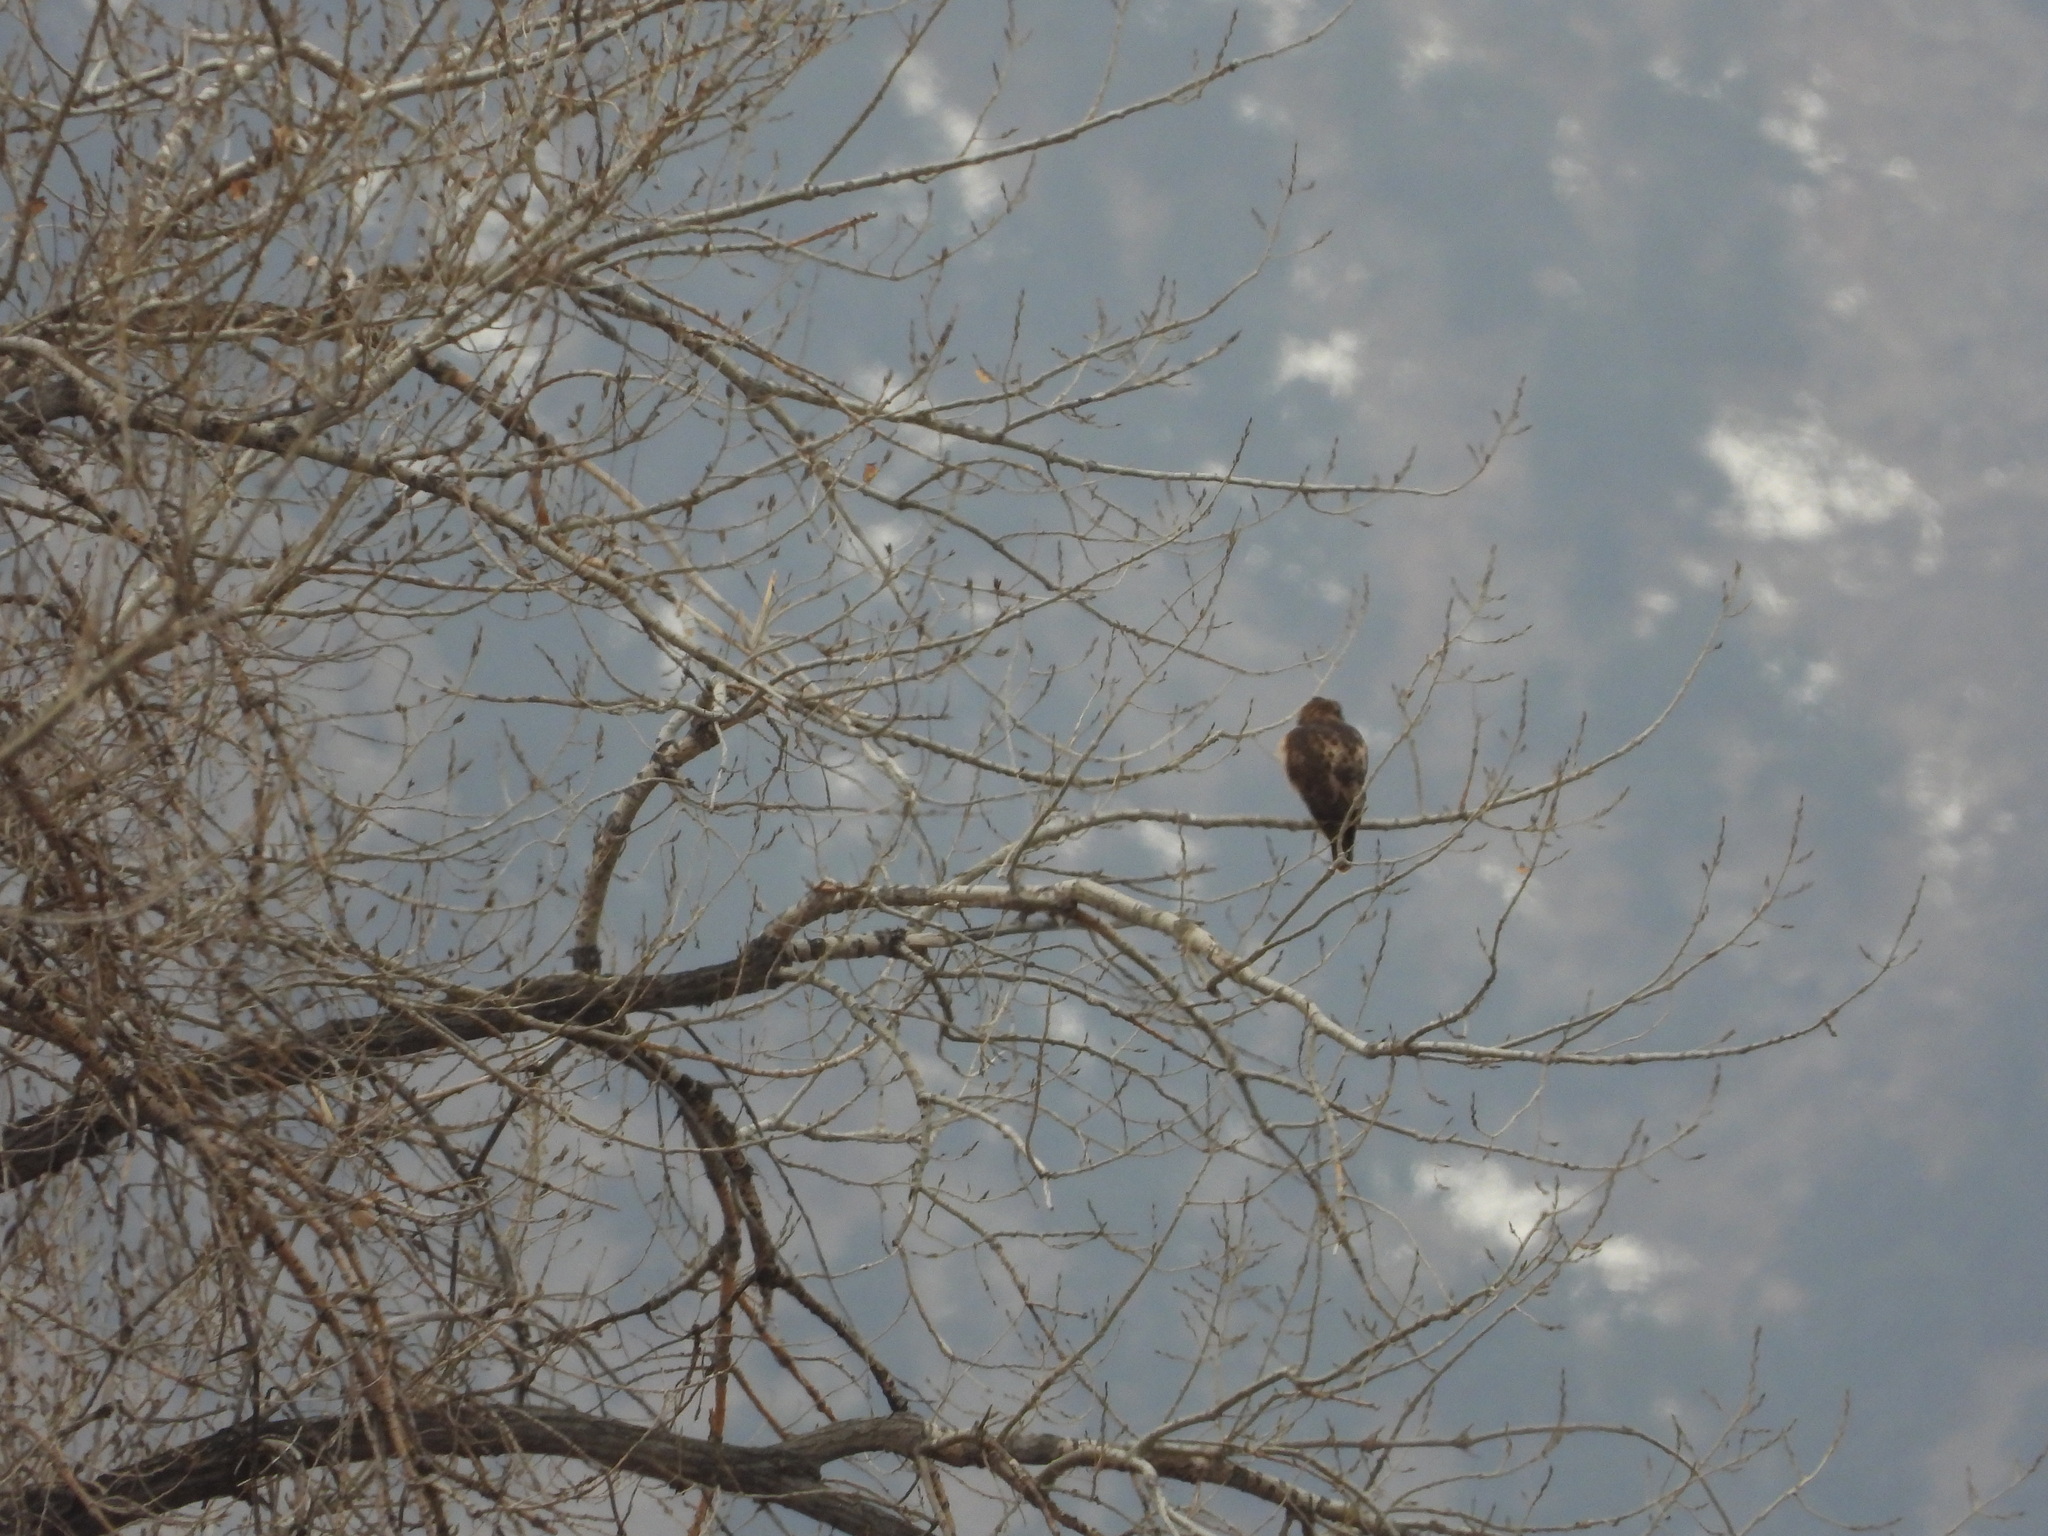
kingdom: Animalia
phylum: Chordata
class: Aves
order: Accipitriformes
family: Accipitridae
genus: Buteo
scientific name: Buteo jamaicensis
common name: Red-tailed hawk
